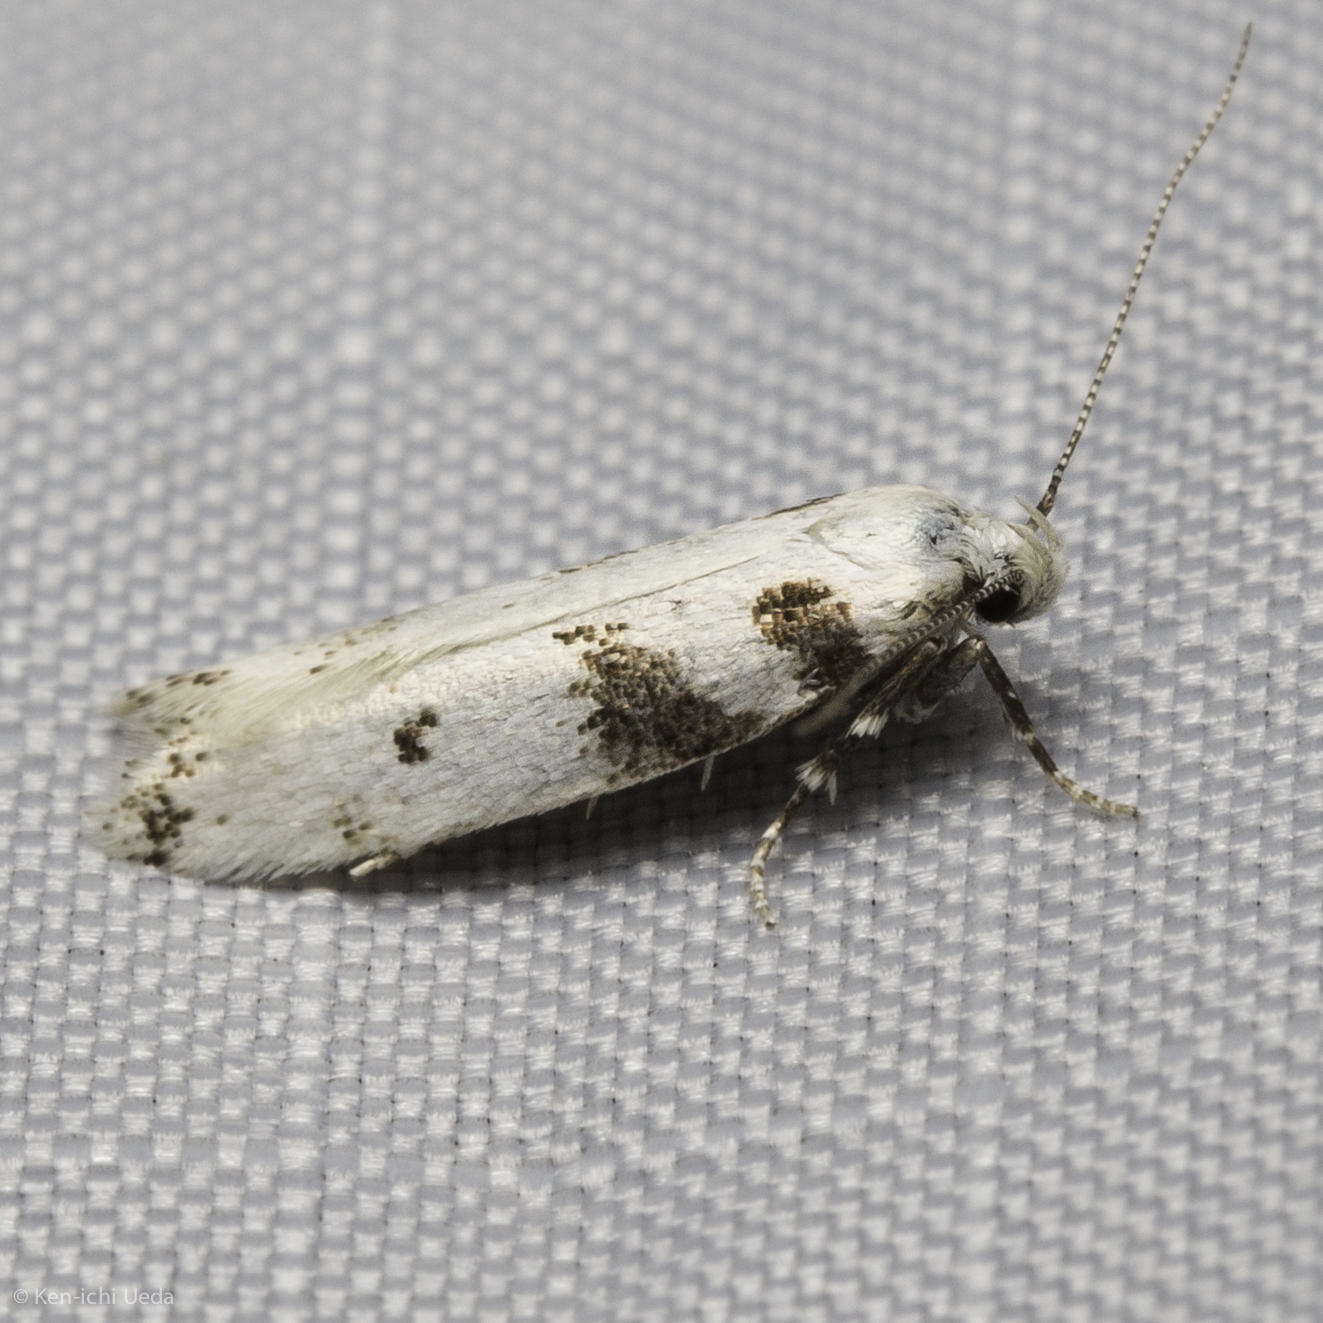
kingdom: Animalia
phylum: Arthropoda
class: Insecta
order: Lepidoptera
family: Gelechiidae
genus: Chionodes
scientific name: Chionodes lictor
